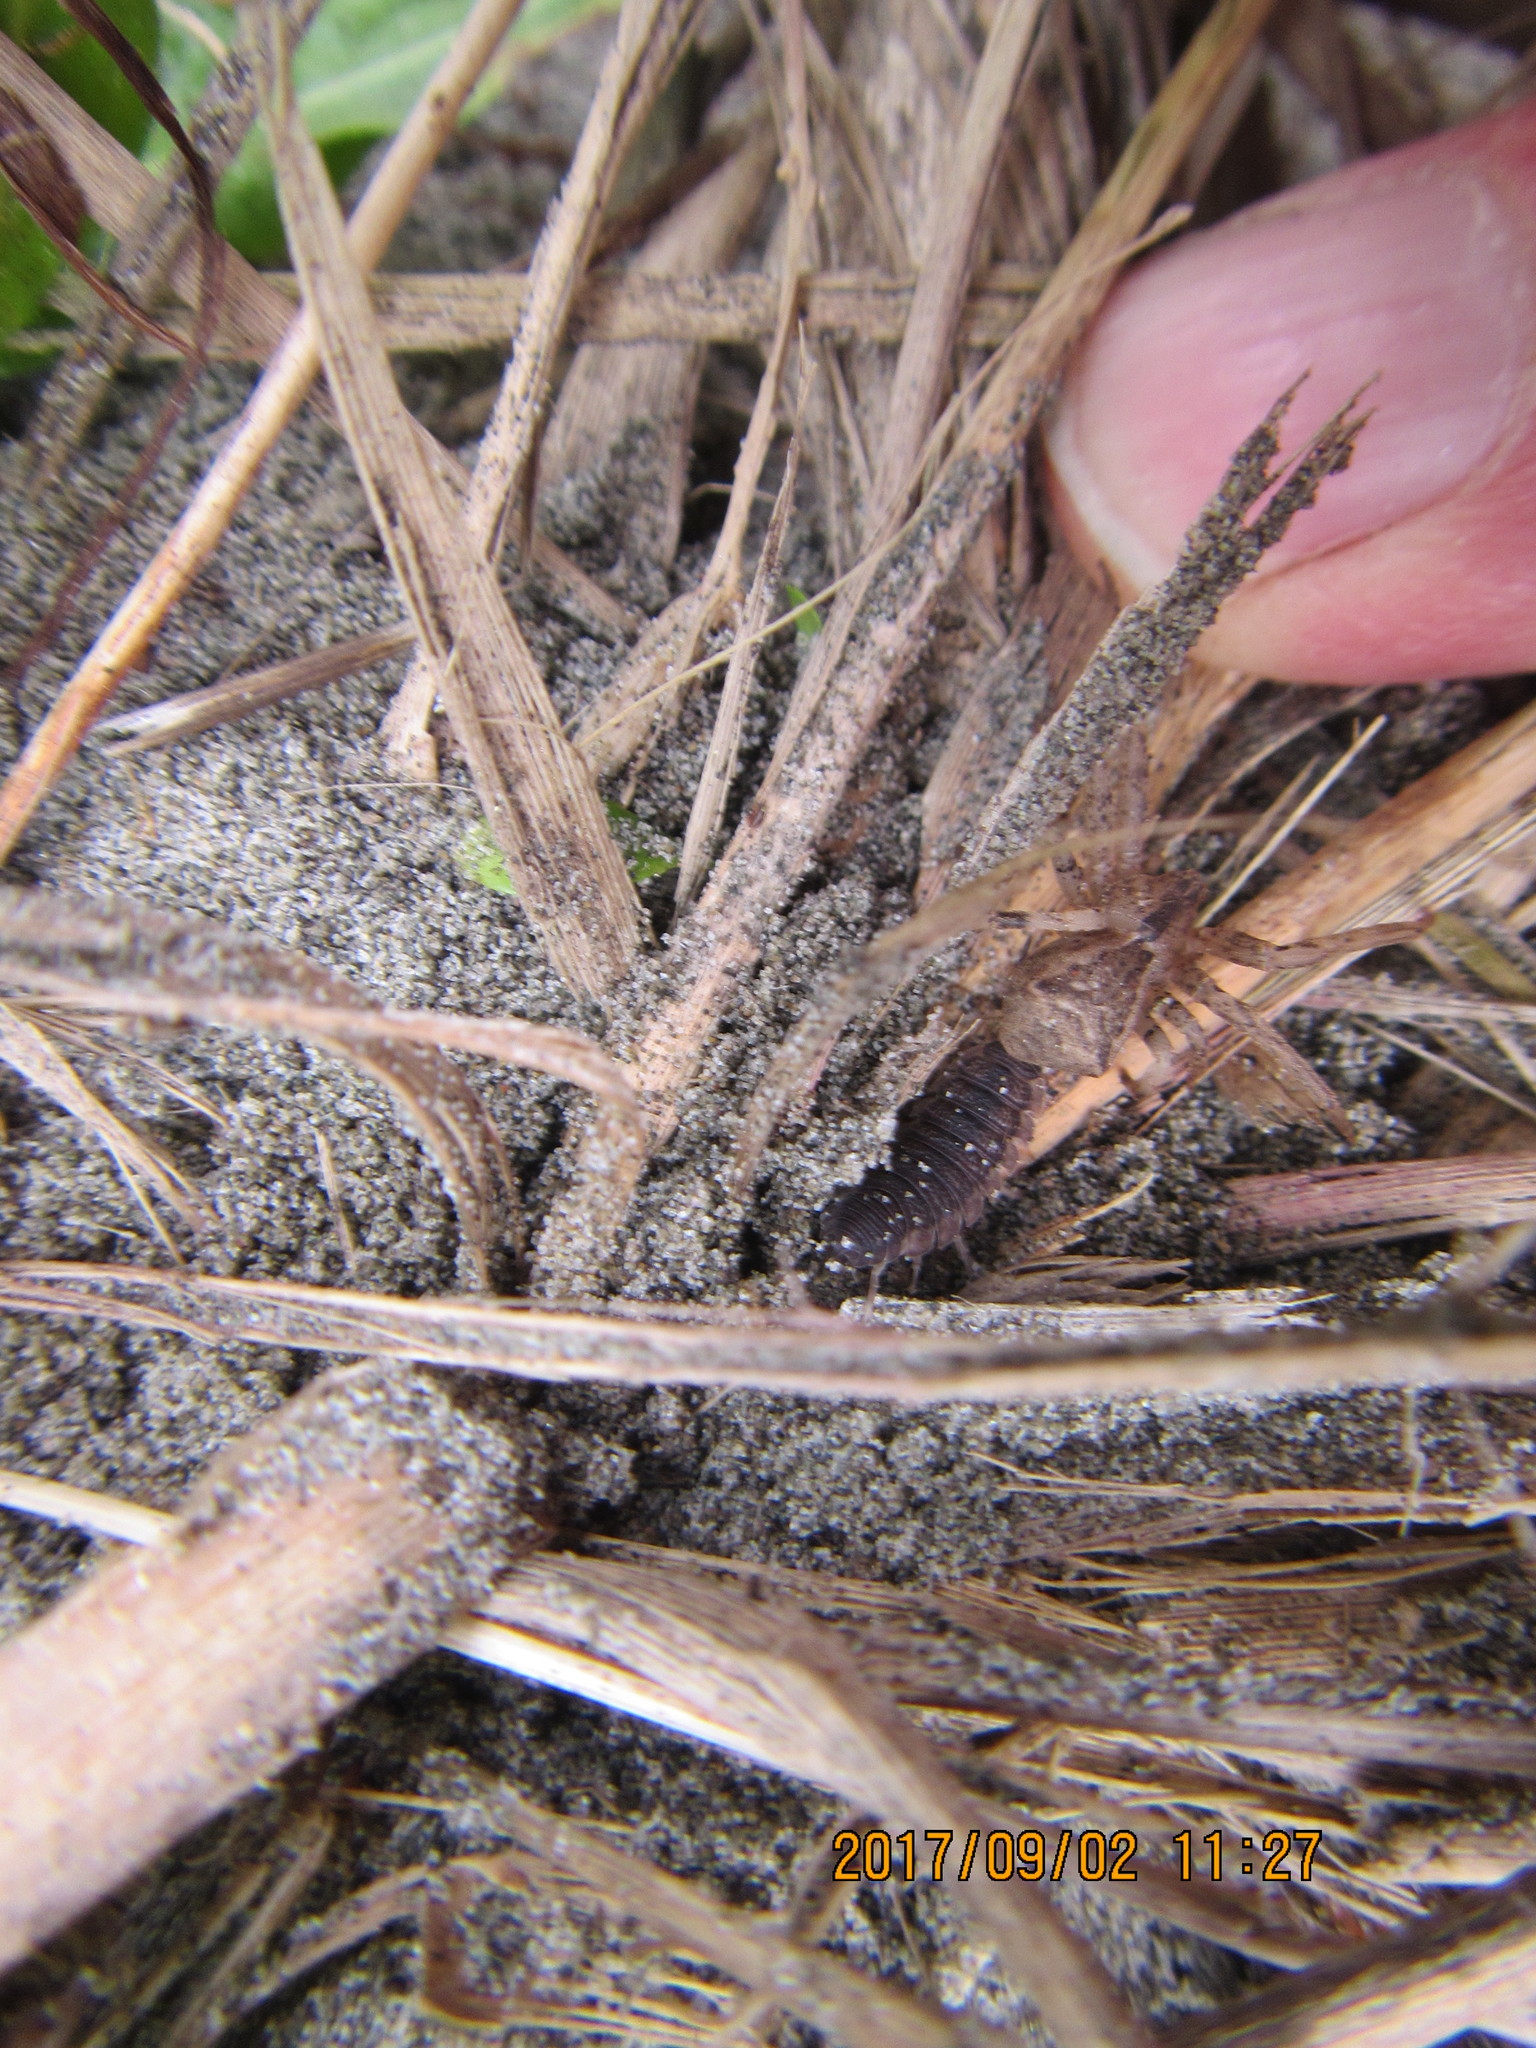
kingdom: Animalia
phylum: Arthropoda
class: Arachnida
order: Araneae
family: Thomisidae
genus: Sidymella
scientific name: Sidymella trapezia
